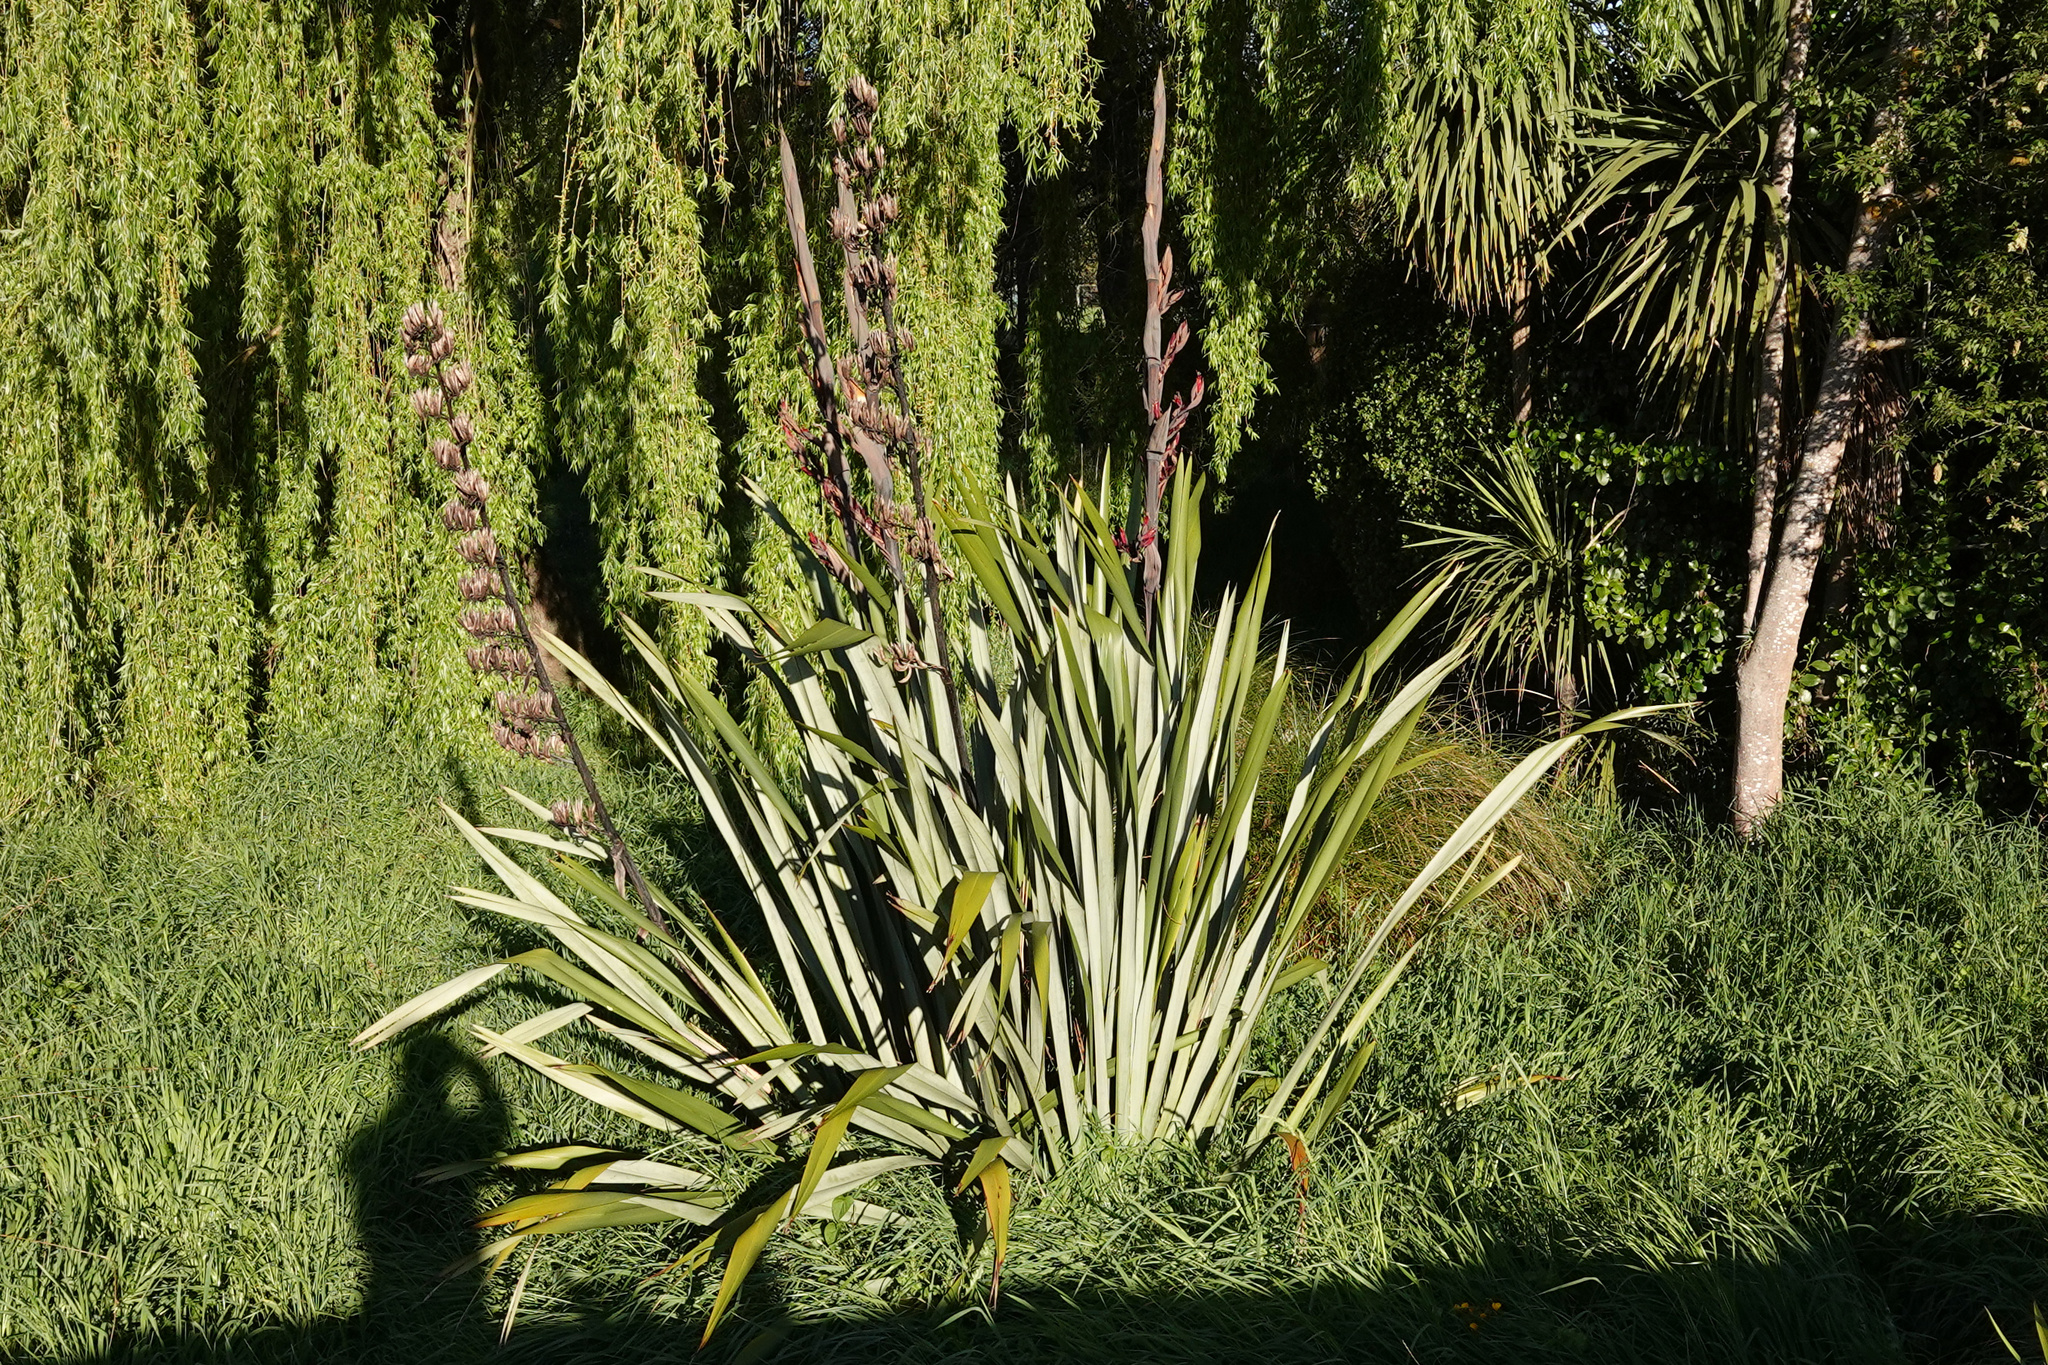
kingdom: Plantae
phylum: Tracheophyta
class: Liliopsida
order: Asparagales
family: Asphodelaceae
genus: Phormium
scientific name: Phormium tenax
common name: New zealand flax
